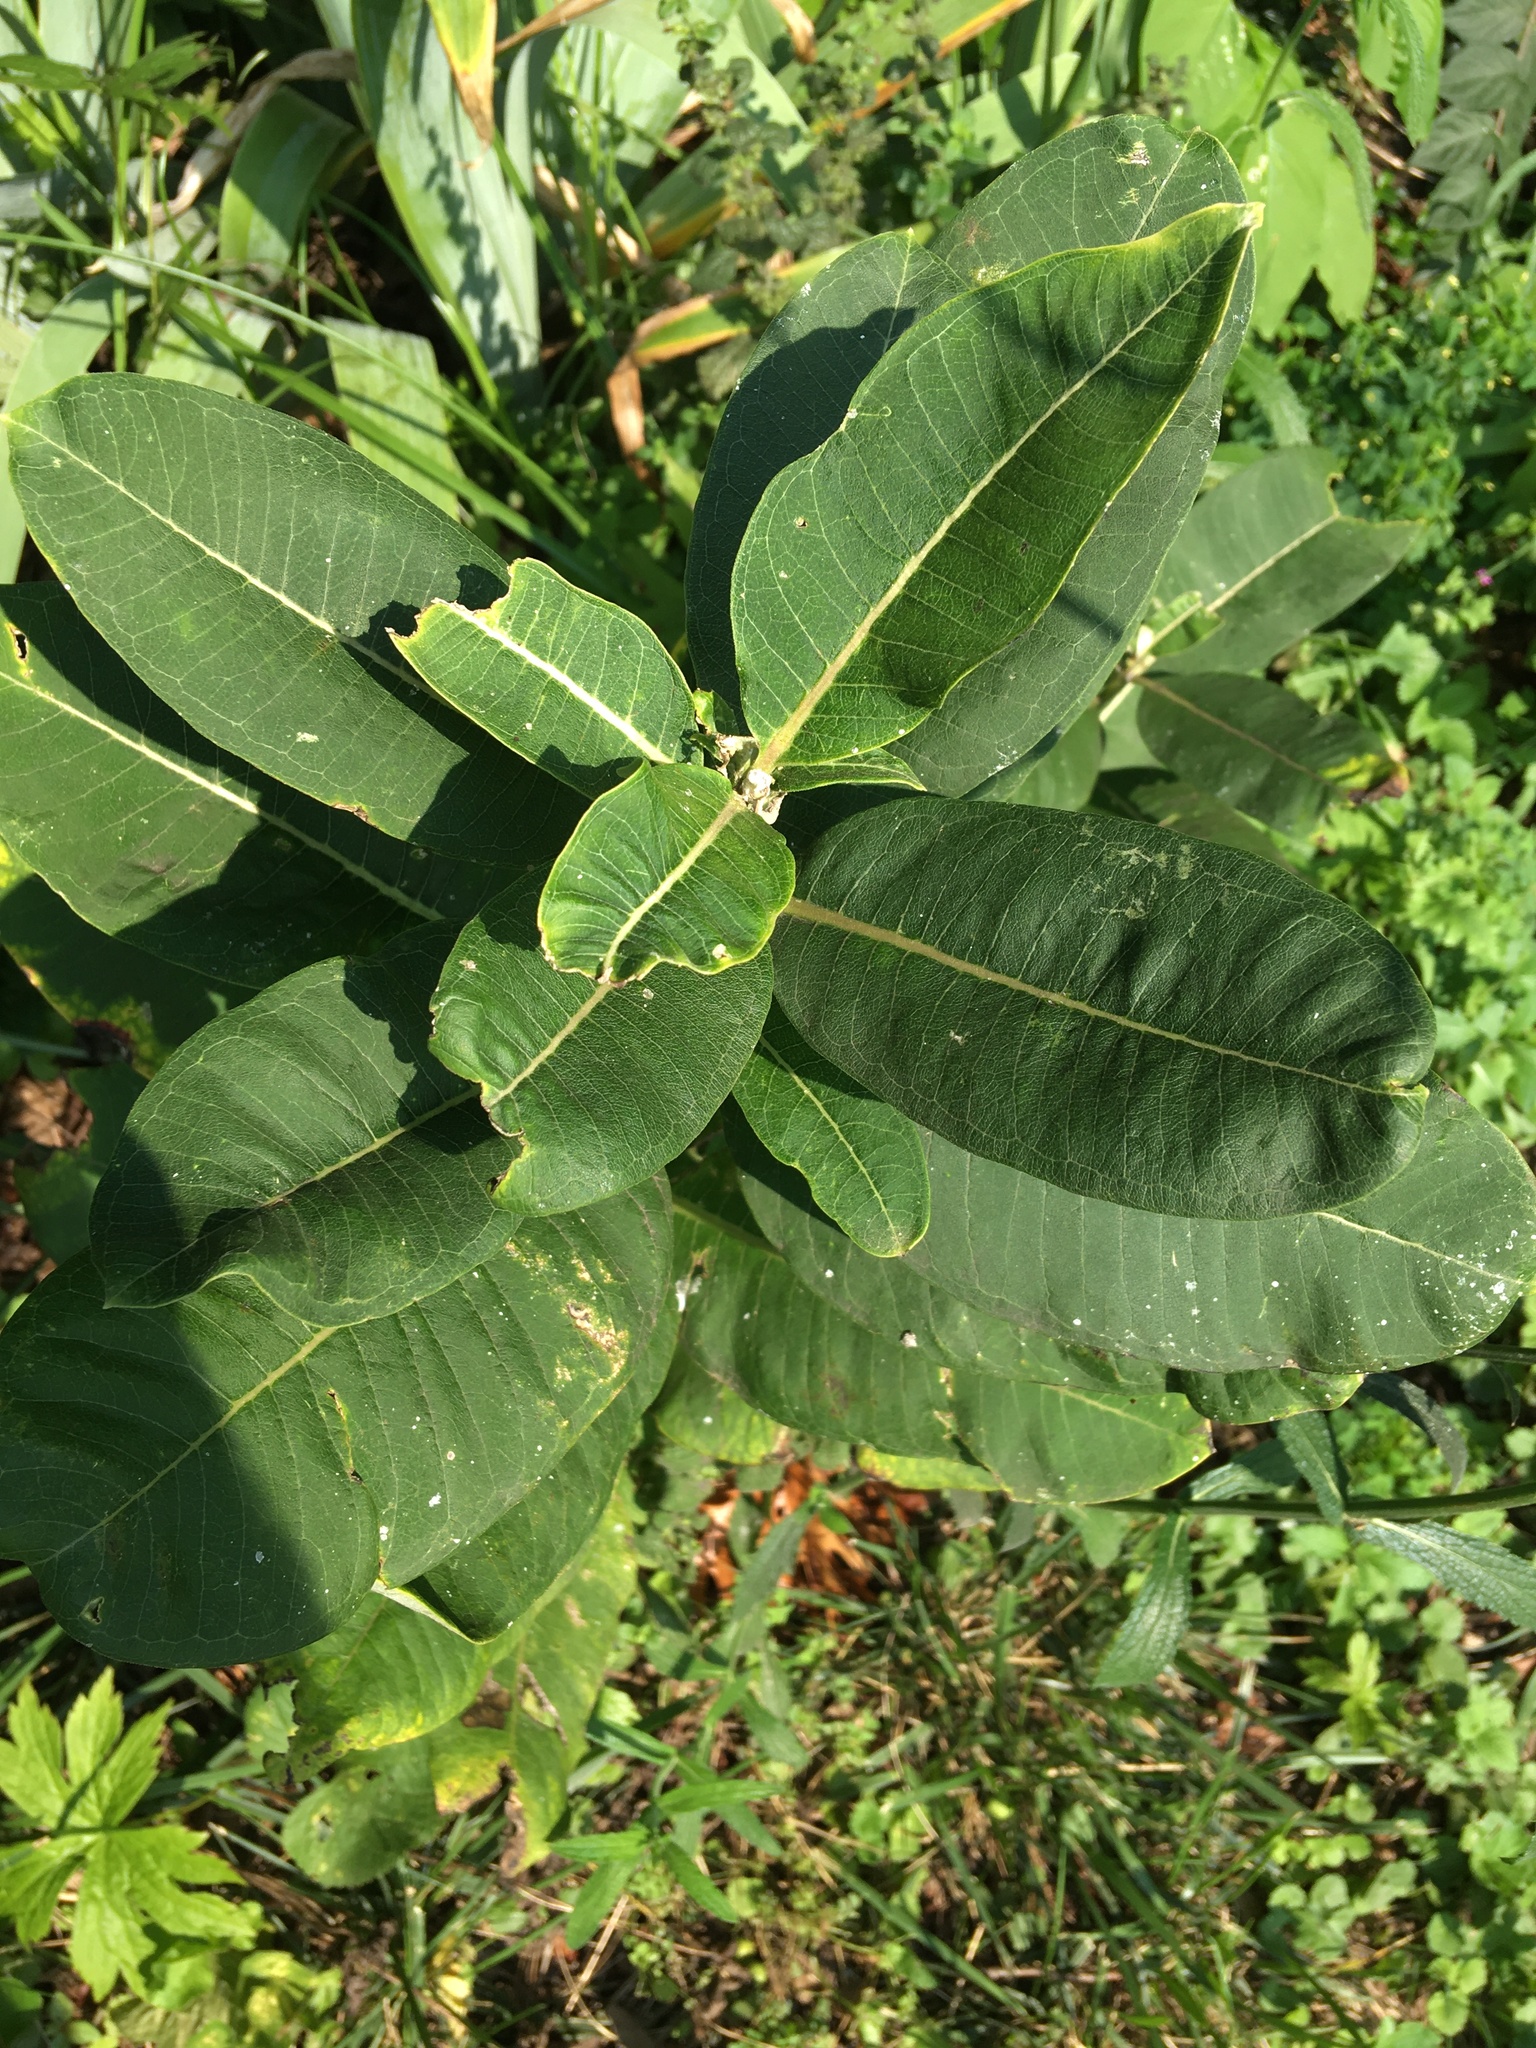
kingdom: Plantae
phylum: Tracheophyta
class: Magnoliopsida
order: Gentianales
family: Apocynaceae
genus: Asclepias
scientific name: Asclepias syriaca
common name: Common milkweed
